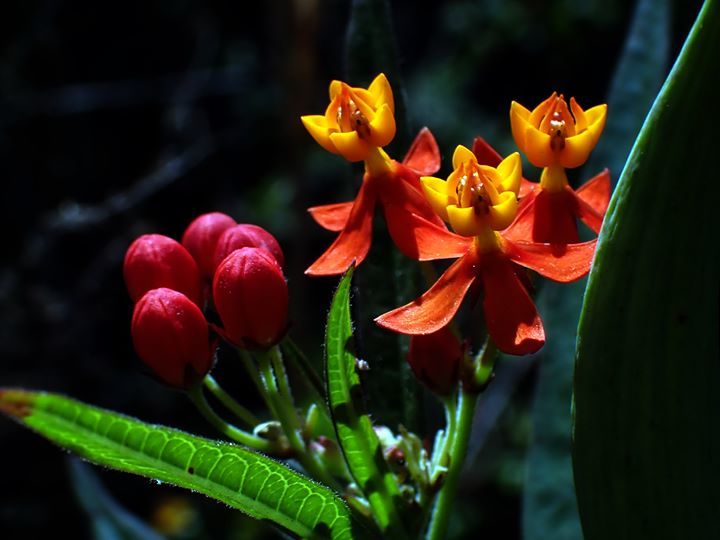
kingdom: Plantae
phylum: Tracheophyta
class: Magnoliopsida
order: Gentianales
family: Apocynaceae
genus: Asclepias
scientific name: Asclepias curassavica
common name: Bloodflower
